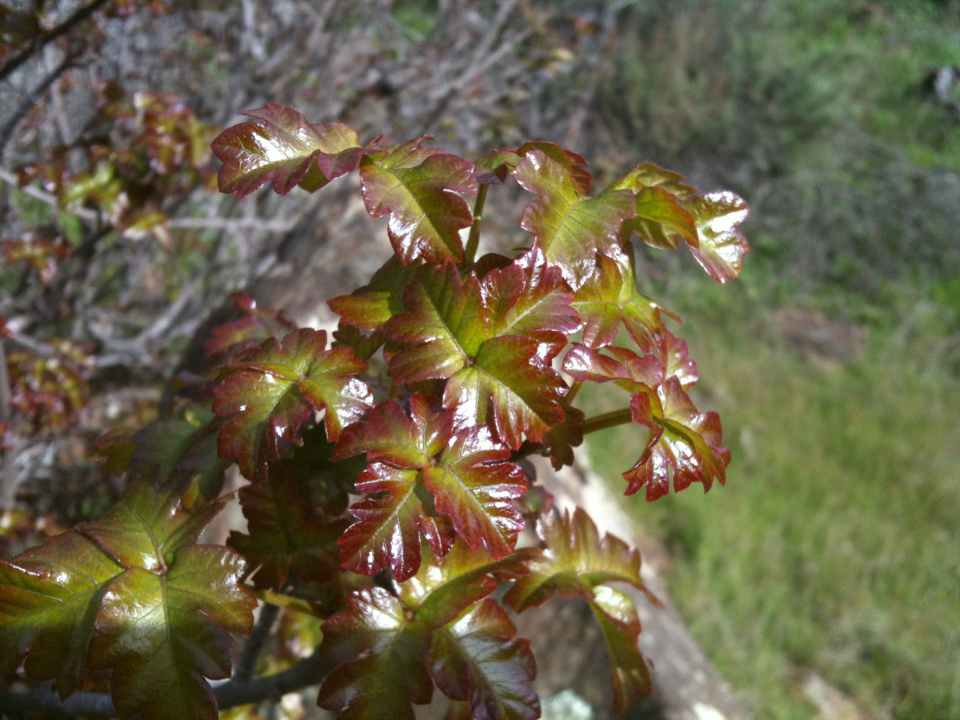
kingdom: Plantae
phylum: Tracheophyta
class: Magnoliopsida
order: Sapindales
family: Anacardiaceae
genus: Toxicodendron
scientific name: Toxicodendron diversilobum
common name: Pacific poison-oak
